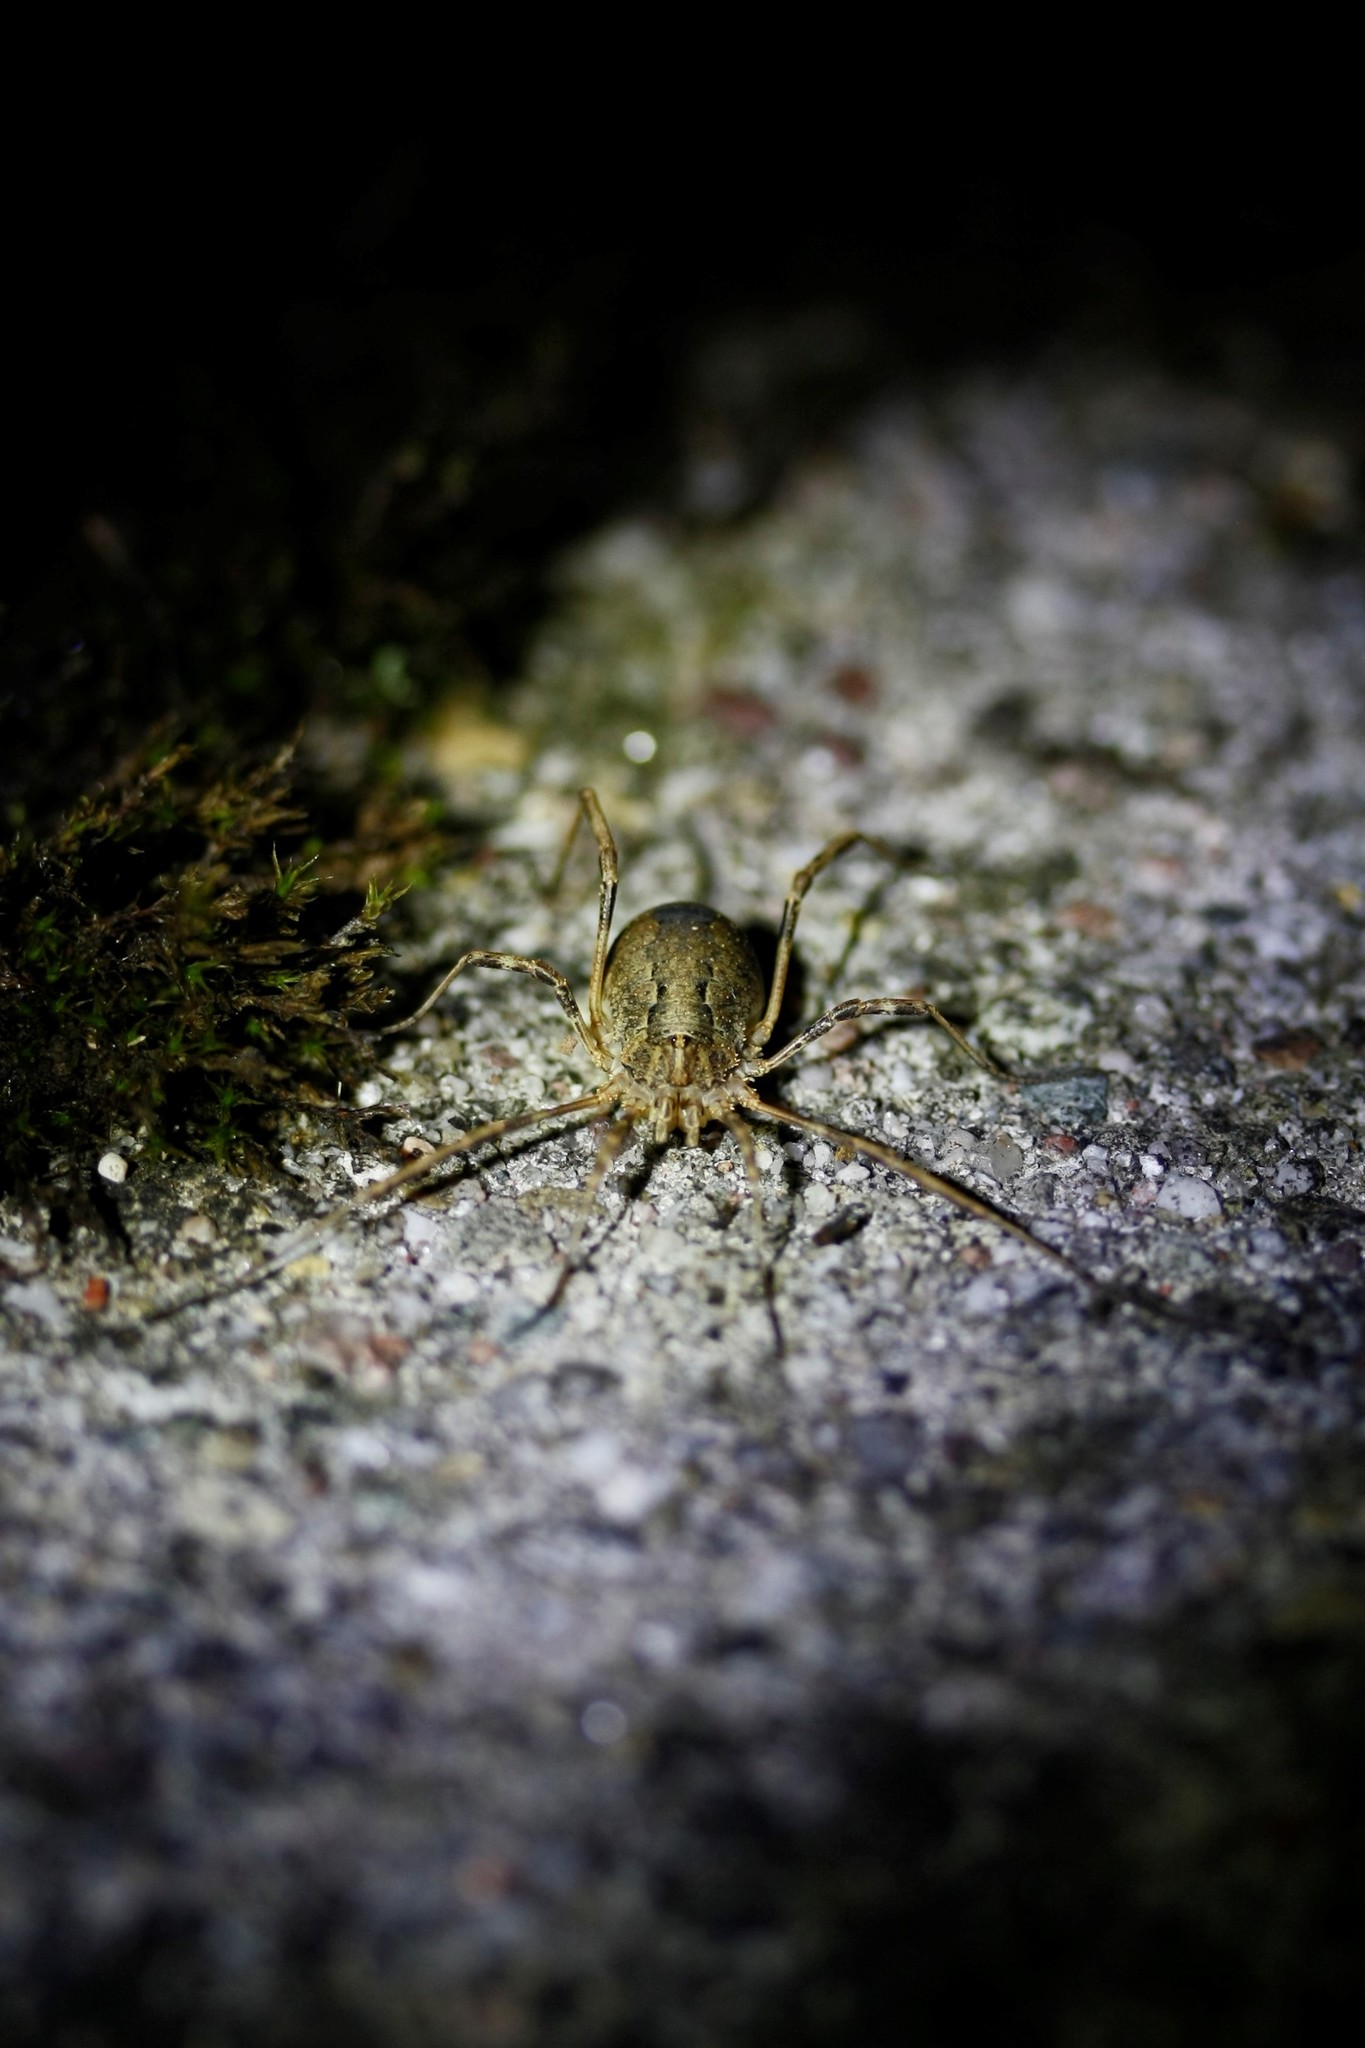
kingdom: Animalia
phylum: Arthropoda
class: Arachnida
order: Opiliones
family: Phalangiidae
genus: Odiellus
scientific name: Odiellus spinosus
